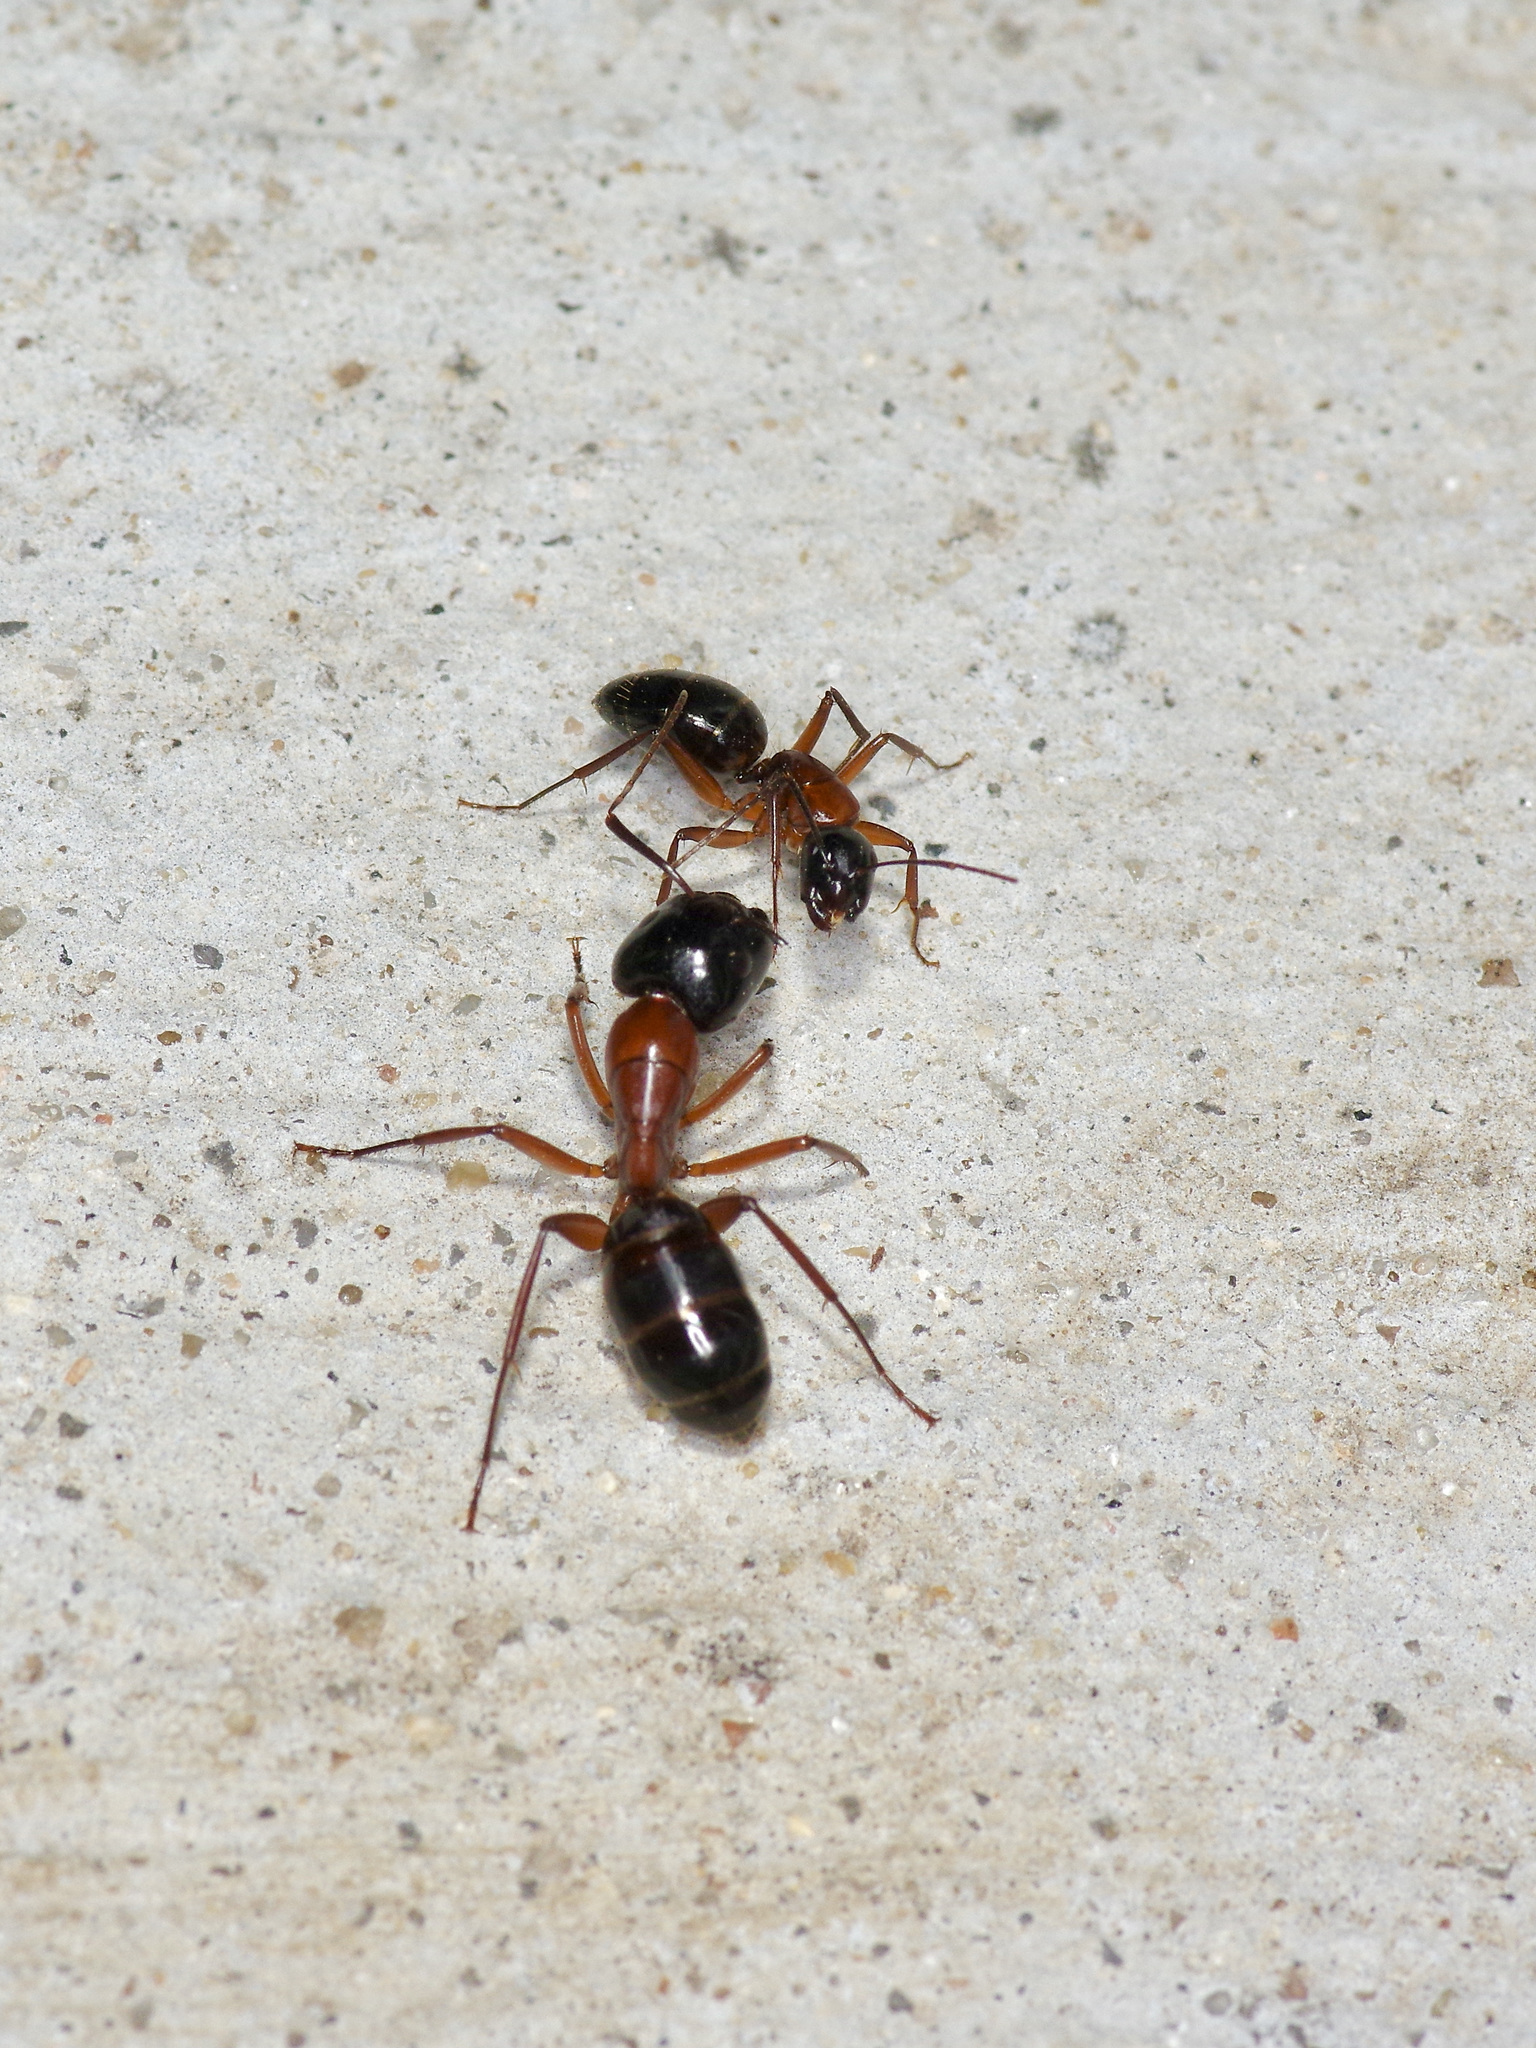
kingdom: Animalia
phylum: Arthropoda
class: Insecta
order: Hymenoptera
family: Formicidae
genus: Camponotus
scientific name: Camponotus texanus
